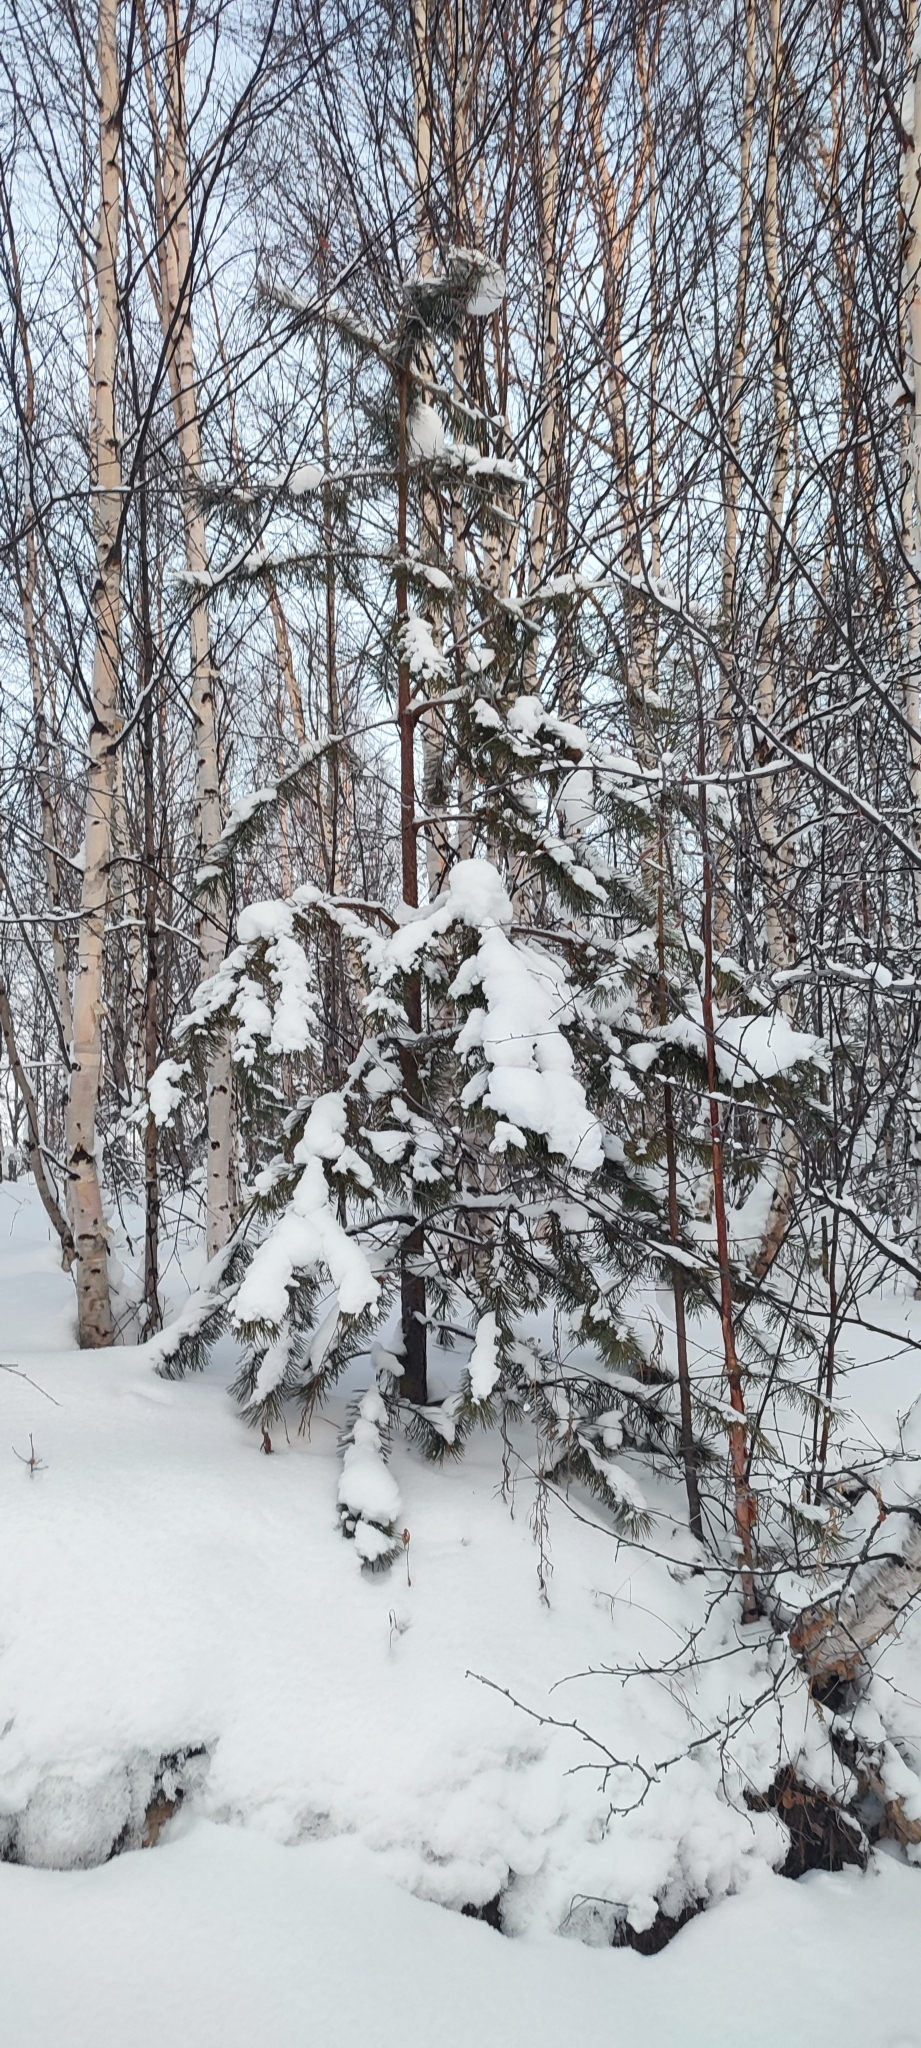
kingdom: Plantae
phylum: Tracheophyta
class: Pinopsida
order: Pinales
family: Pinaceae
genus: Pinus
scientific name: Pinus sylvestris
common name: Scots pine
